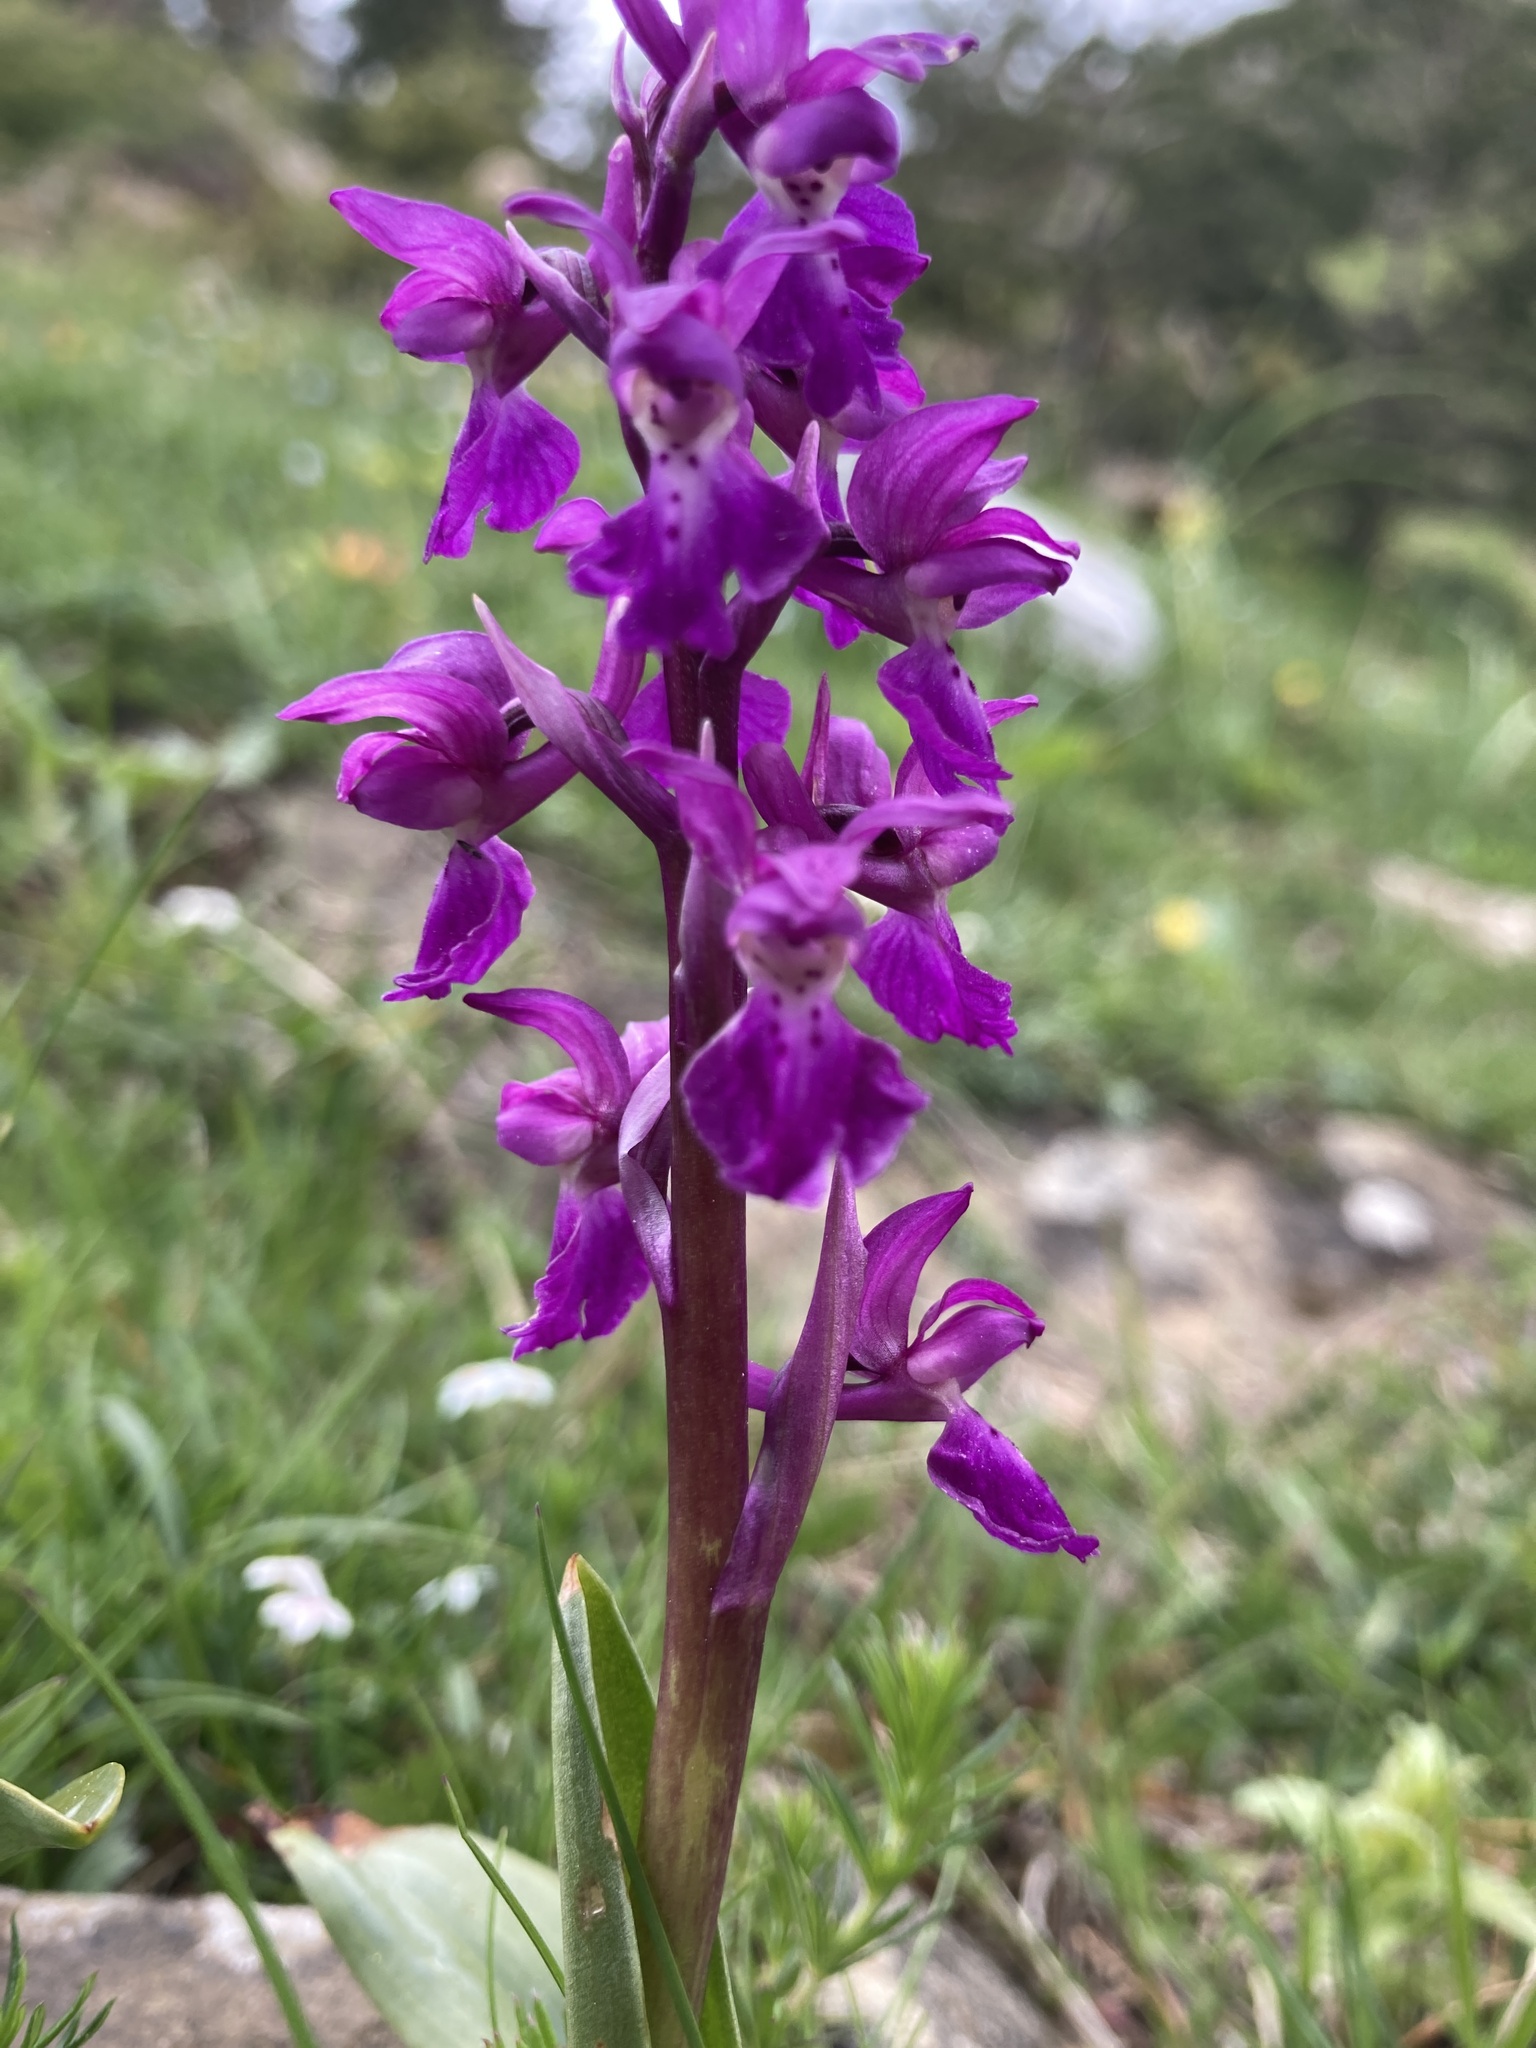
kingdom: Plantae
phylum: Tracheophyta
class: Liliopsida
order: Asparagales
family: Orchidaceae
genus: Orchis
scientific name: Orchis mascula
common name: Early-purple orchid
